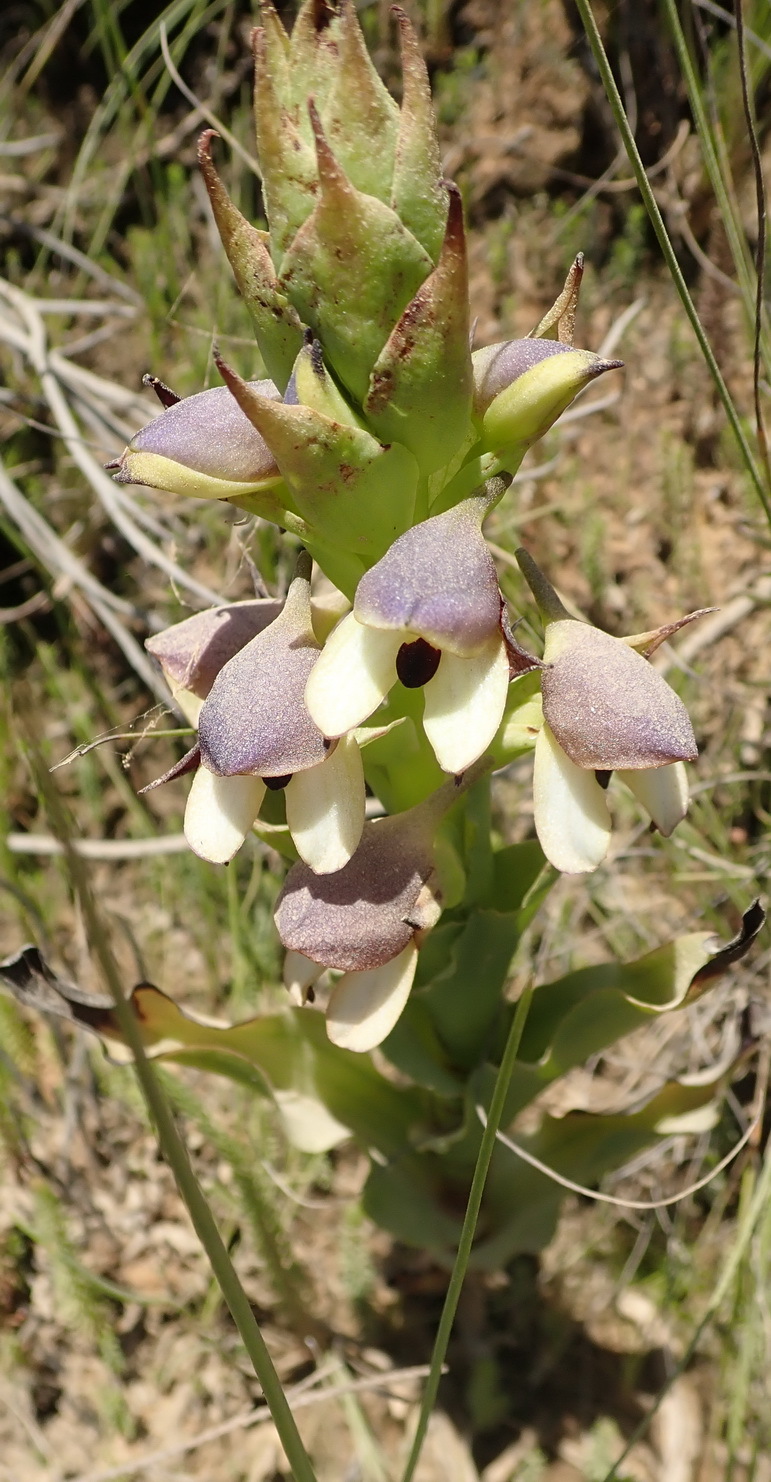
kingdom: Plantae
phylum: Tracheophyta
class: Liliopsida
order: Asparagales
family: Orchidaceae
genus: Disa
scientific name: Disa cornuta
